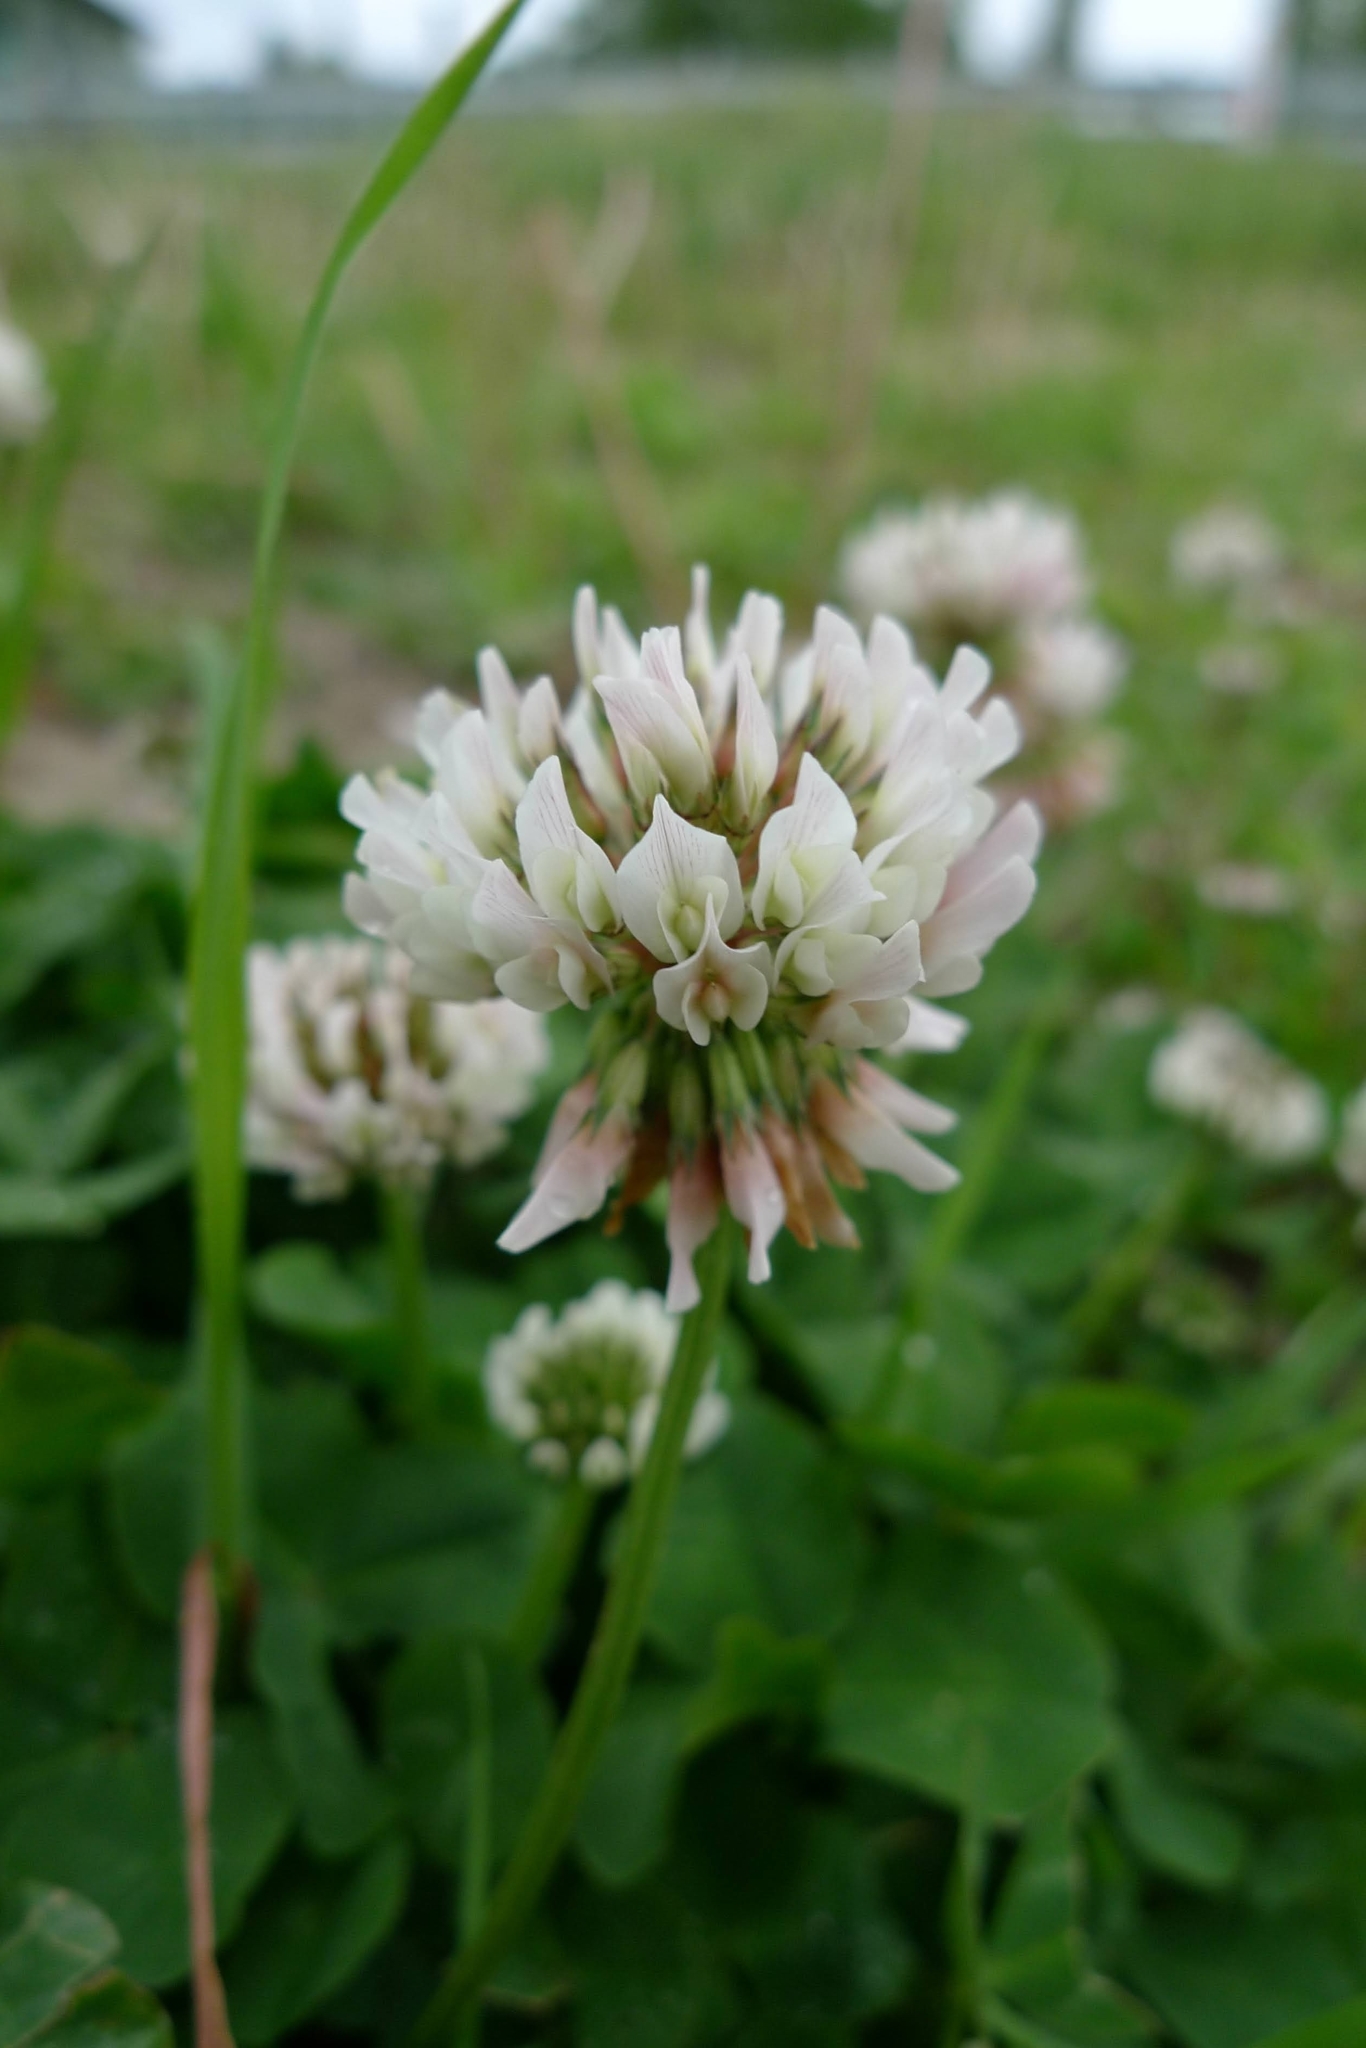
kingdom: Plantae
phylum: Tracheophyta
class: Magnoliopsida
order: Fabales
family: Fabaceae
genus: Trifolium
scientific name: Trifolium repens
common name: White clover
